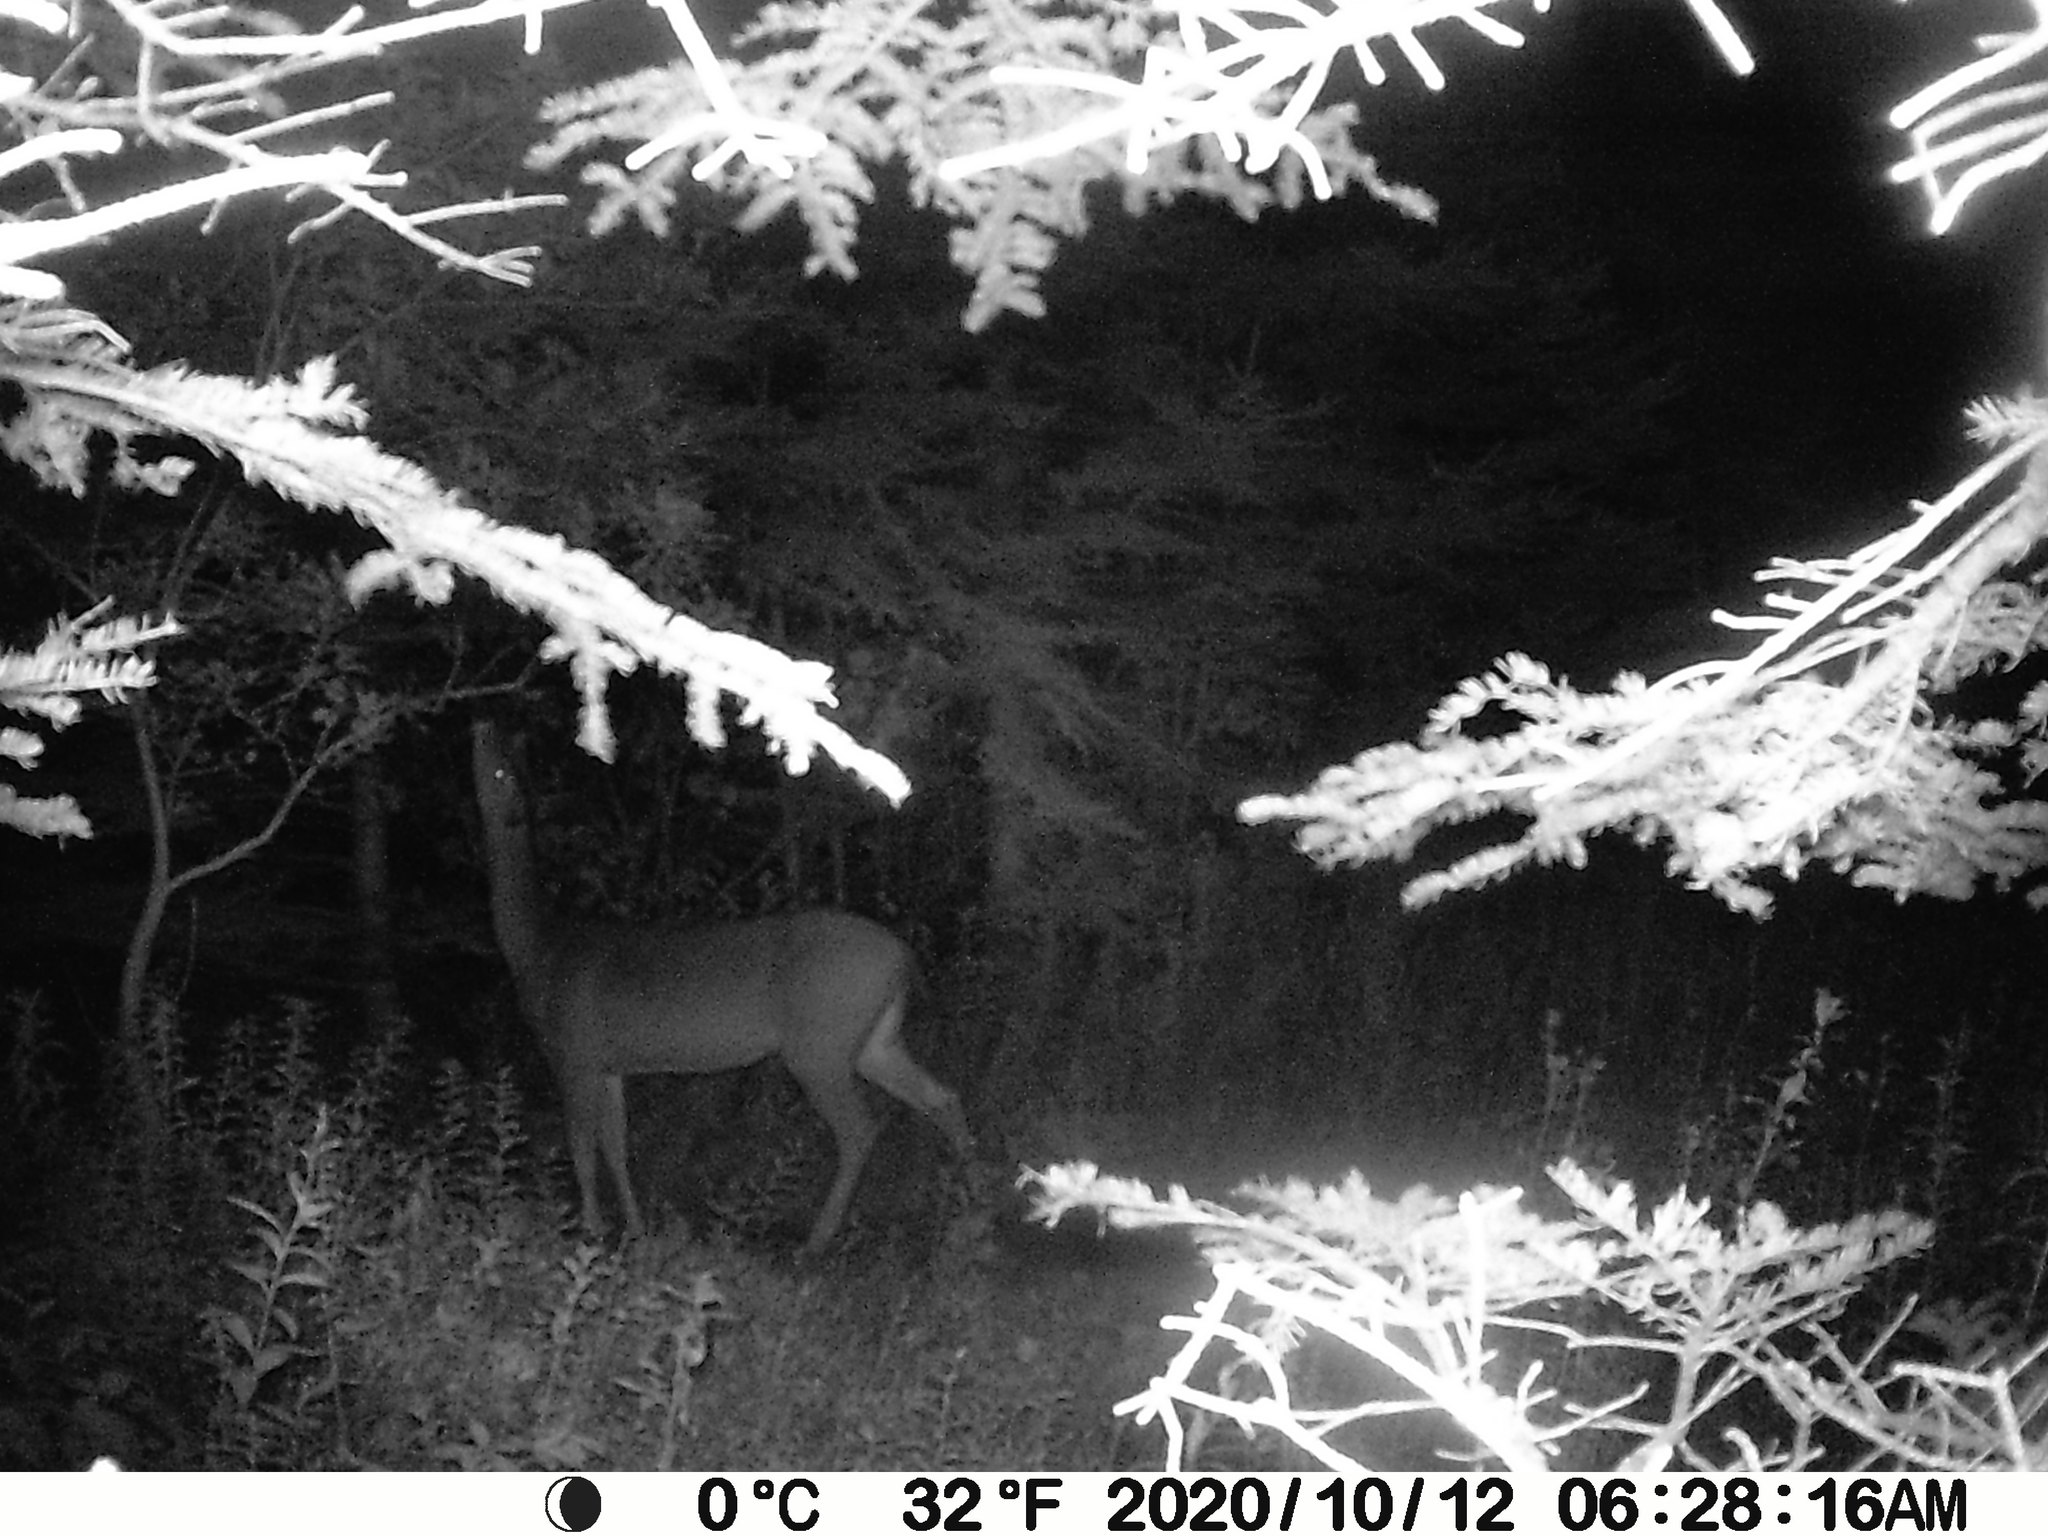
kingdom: Animalia
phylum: Chordata
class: Mammalia
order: Artiodactyla
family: Cervidae
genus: Odocoileus
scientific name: Odocoileus virginianus
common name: White-tailed deer
